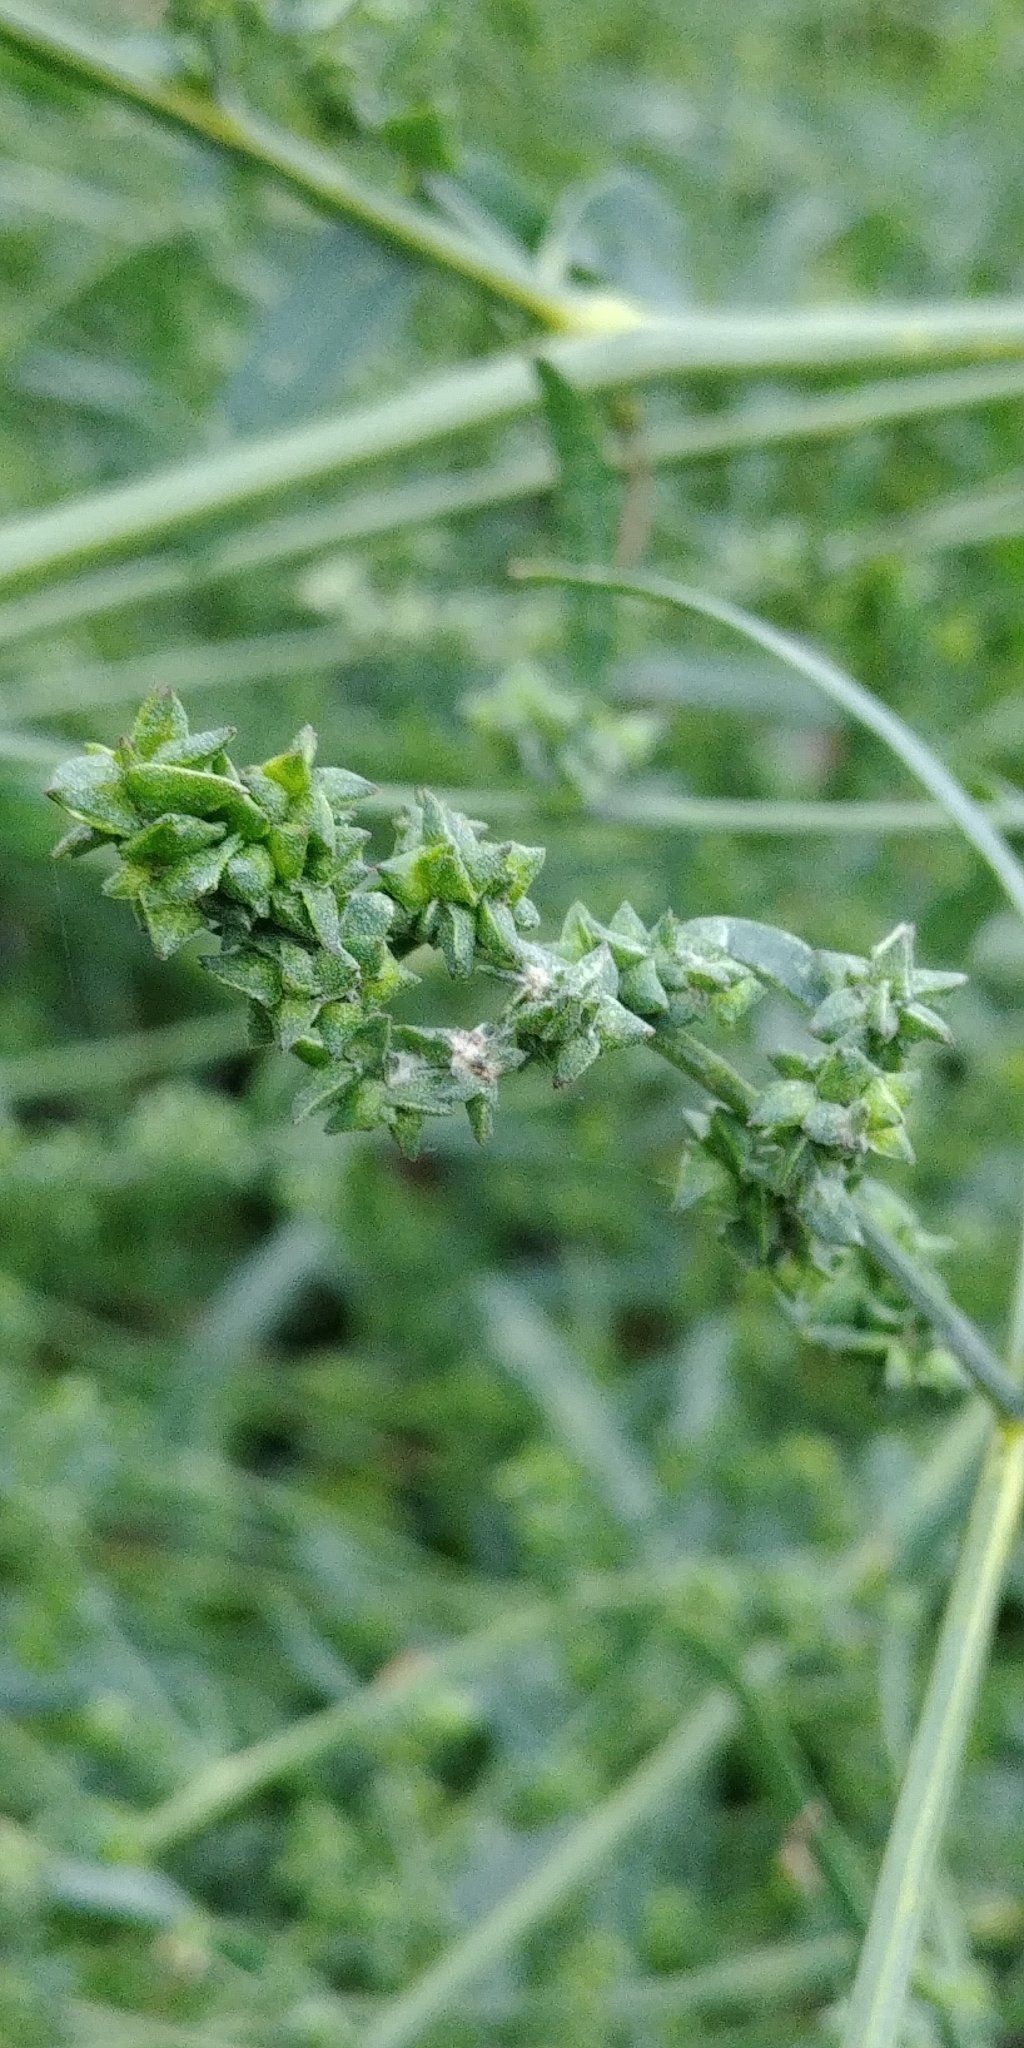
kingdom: Plantae
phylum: Tracheophyta
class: Magnoliopsida
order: Caryophyllales
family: Amaranthaceae
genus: Atriplex
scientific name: Atriplex patula
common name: Common orache
